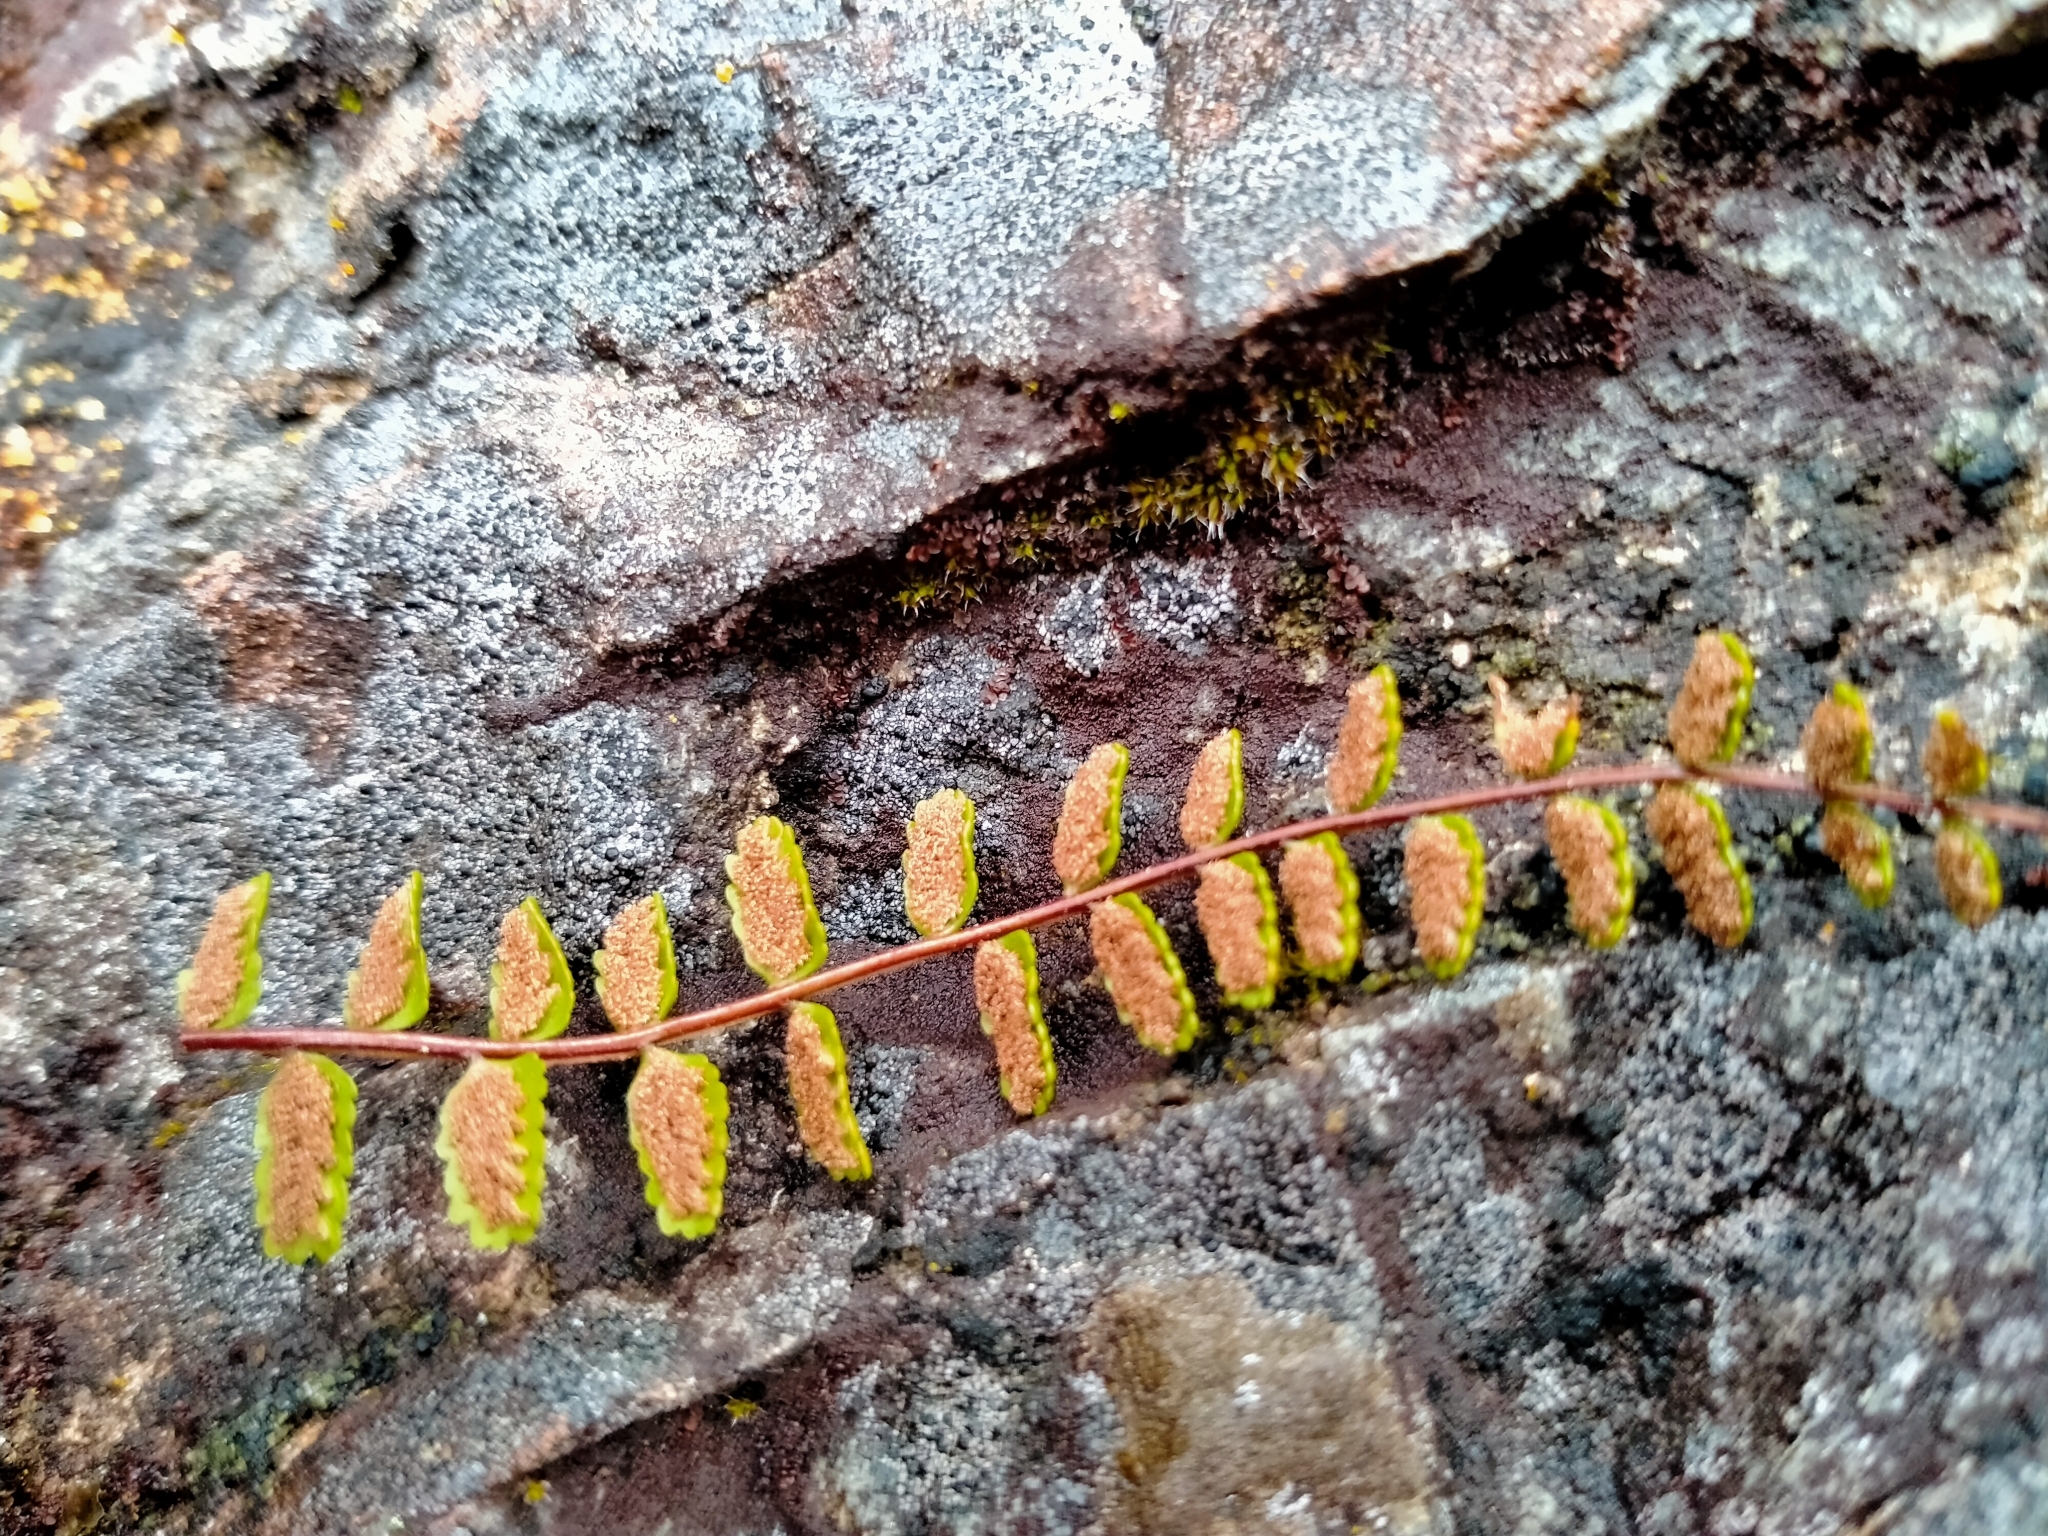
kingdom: Plantae
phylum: Tracheophyta
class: Polypodiopsida
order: Polypodiales
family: Aspleniaceae
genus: Asplenium
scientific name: Asplenium trichomanes
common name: Maidenhair spleenwort
